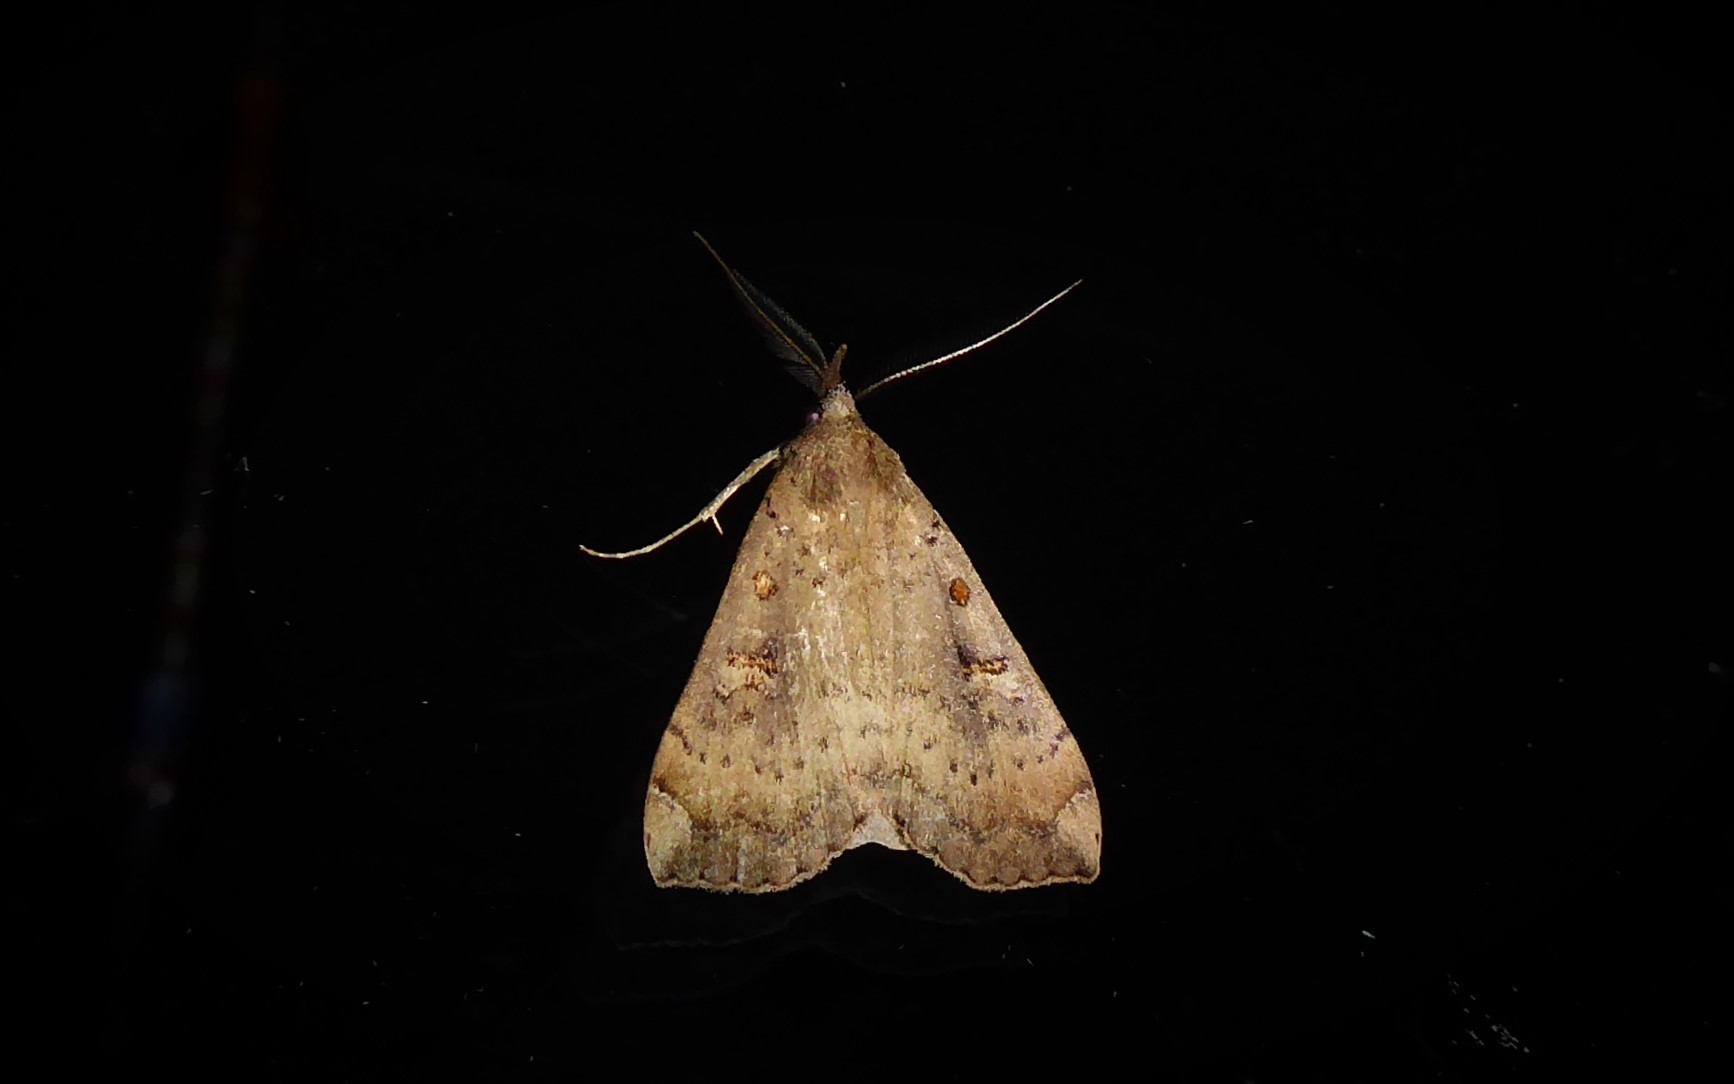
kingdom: Animalia
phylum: Arthropoda
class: Insecta
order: Lepidoptera
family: Erebidae
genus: Rhapsa
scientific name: Rhapsa scotosialis
